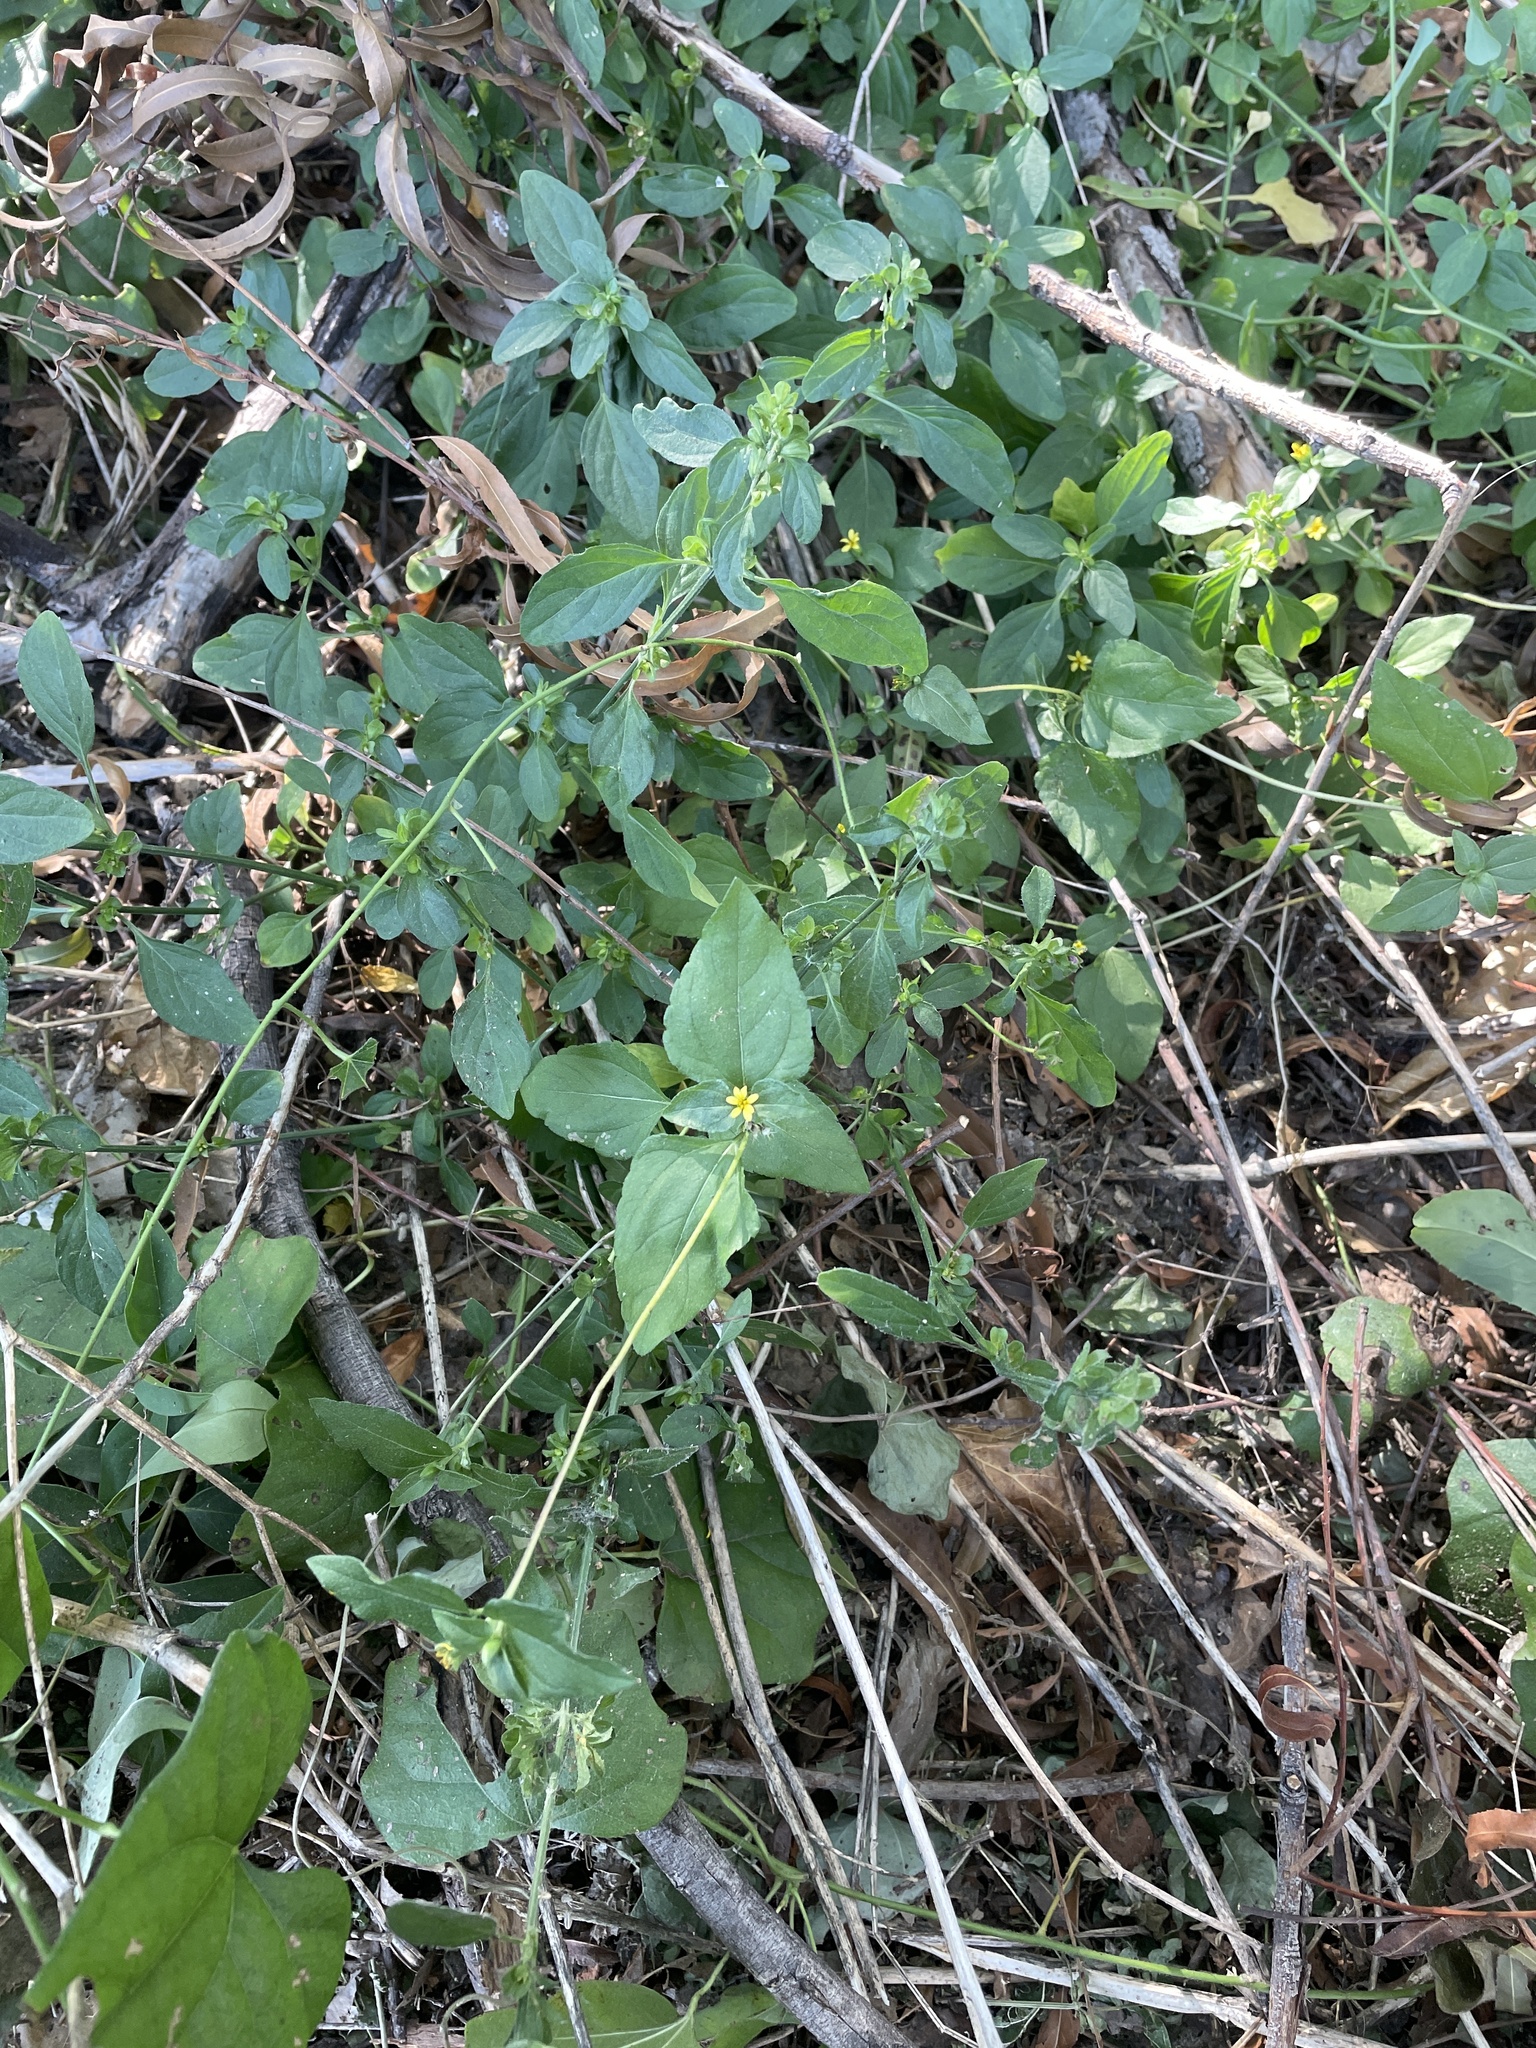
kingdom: Plantae
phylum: Tracheophyta
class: Magnoliopsida
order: Asterales
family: Asteraceae
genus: Calyptocarpus
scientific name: Calyptocarpus vialis
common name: Straggler daisy
